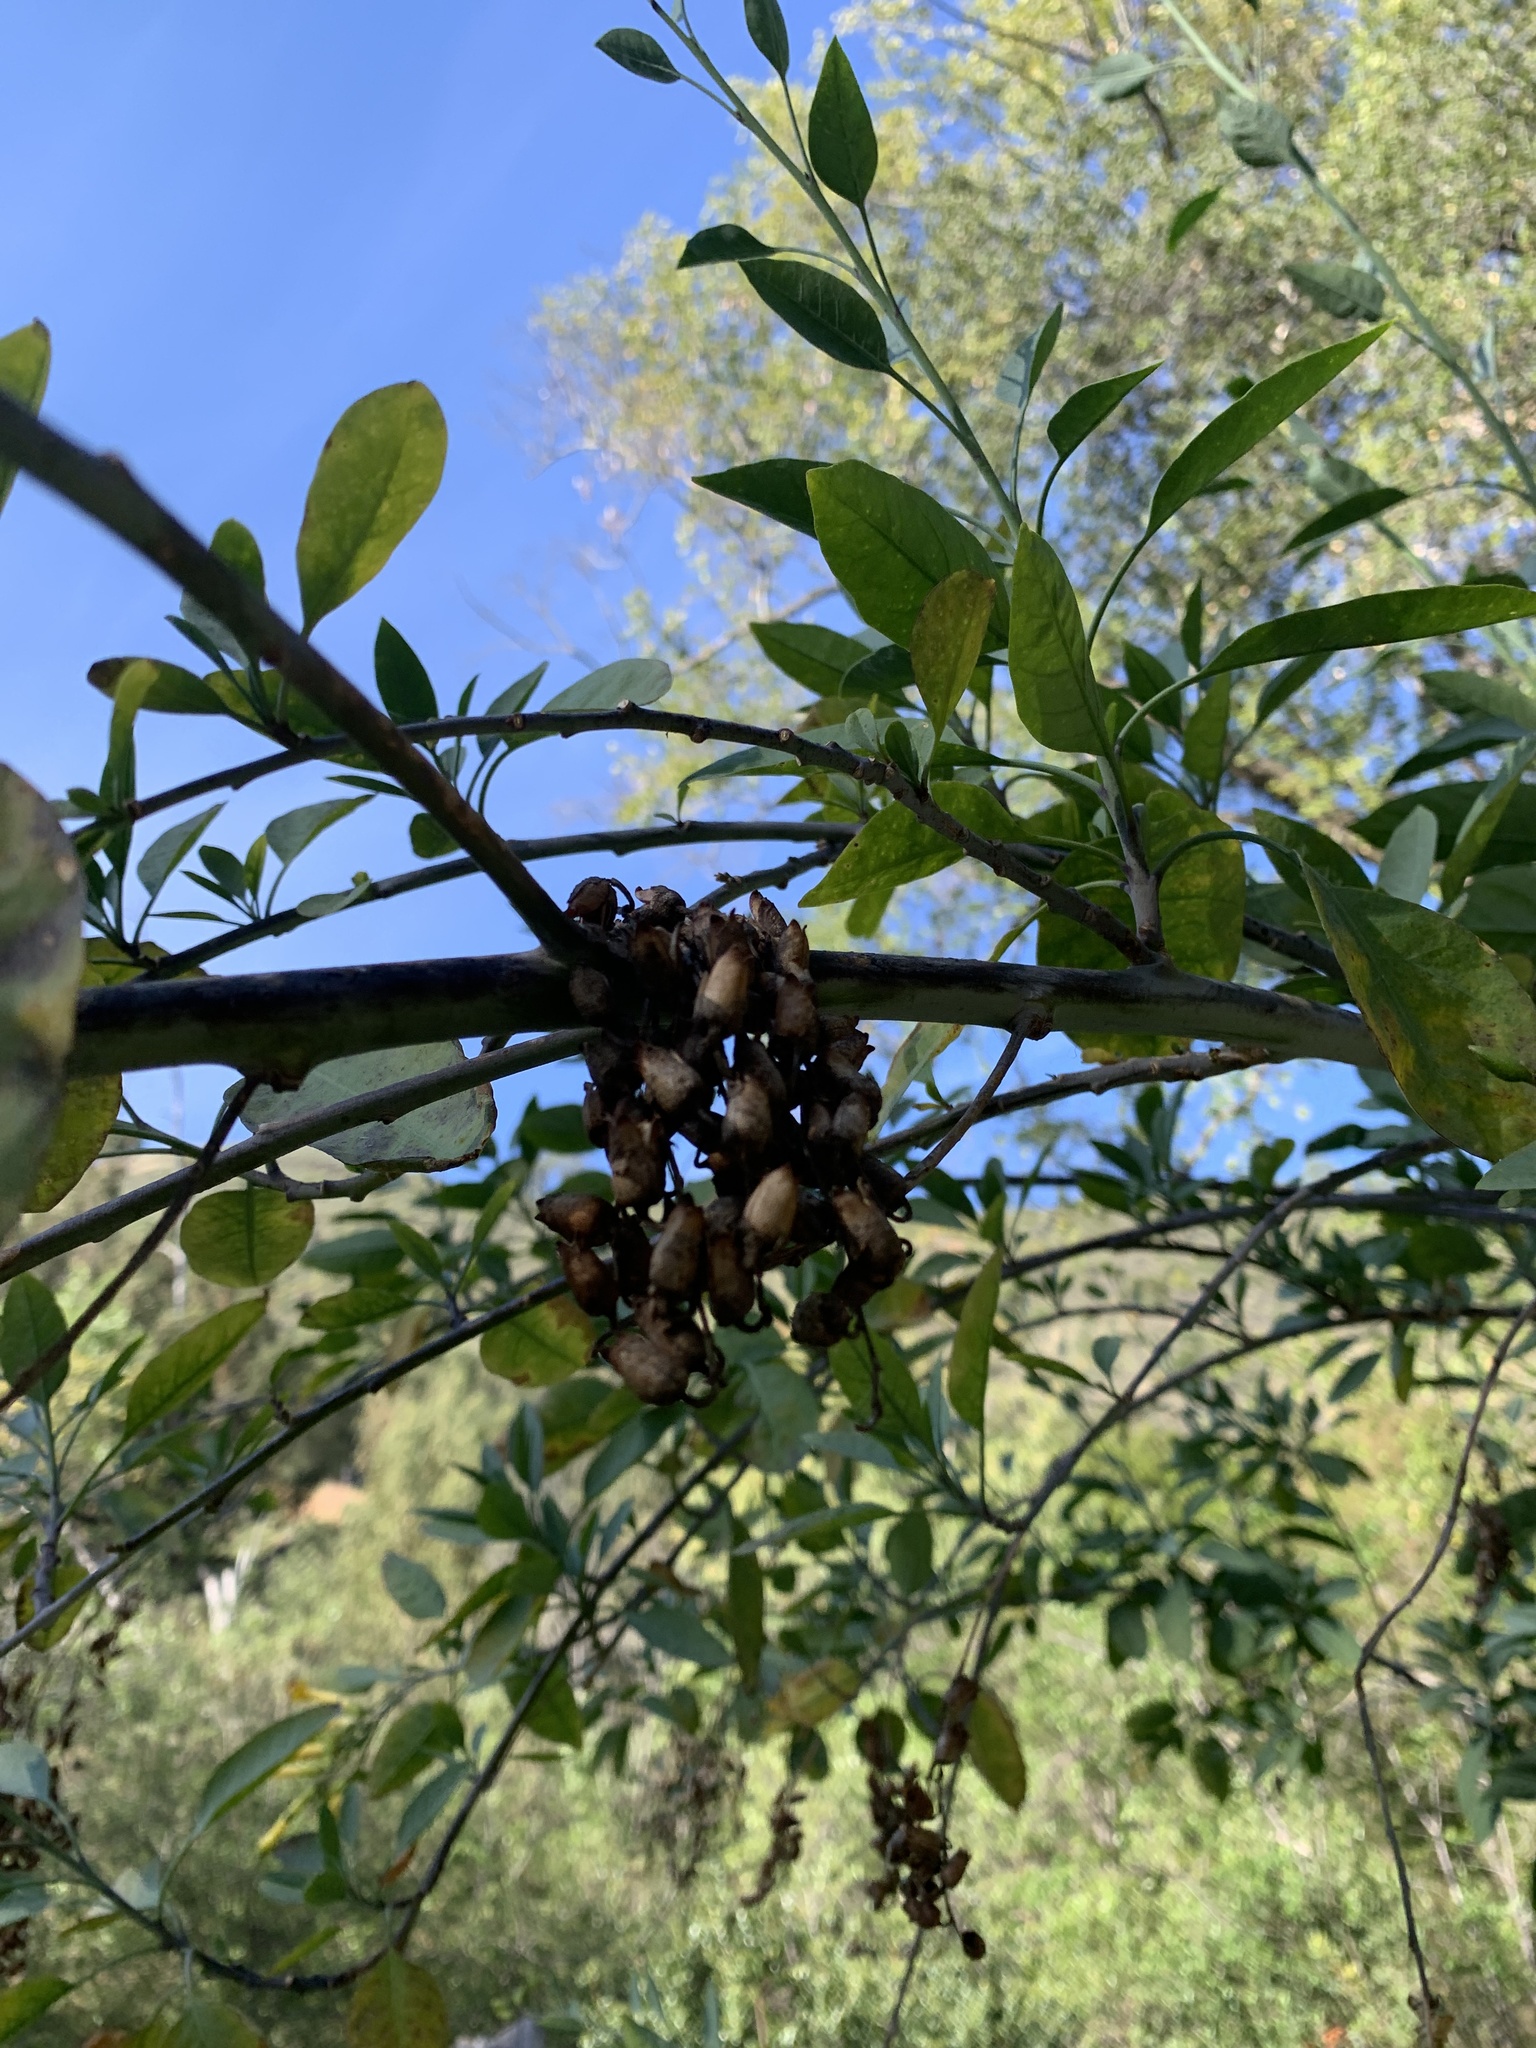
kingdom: Plantae
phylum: Tracheophyta
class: Magnoliopsida
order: Solanales
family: Solanaceae
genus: Nicotiana
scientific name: Nicotiana glauca
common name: Tree tobacco
